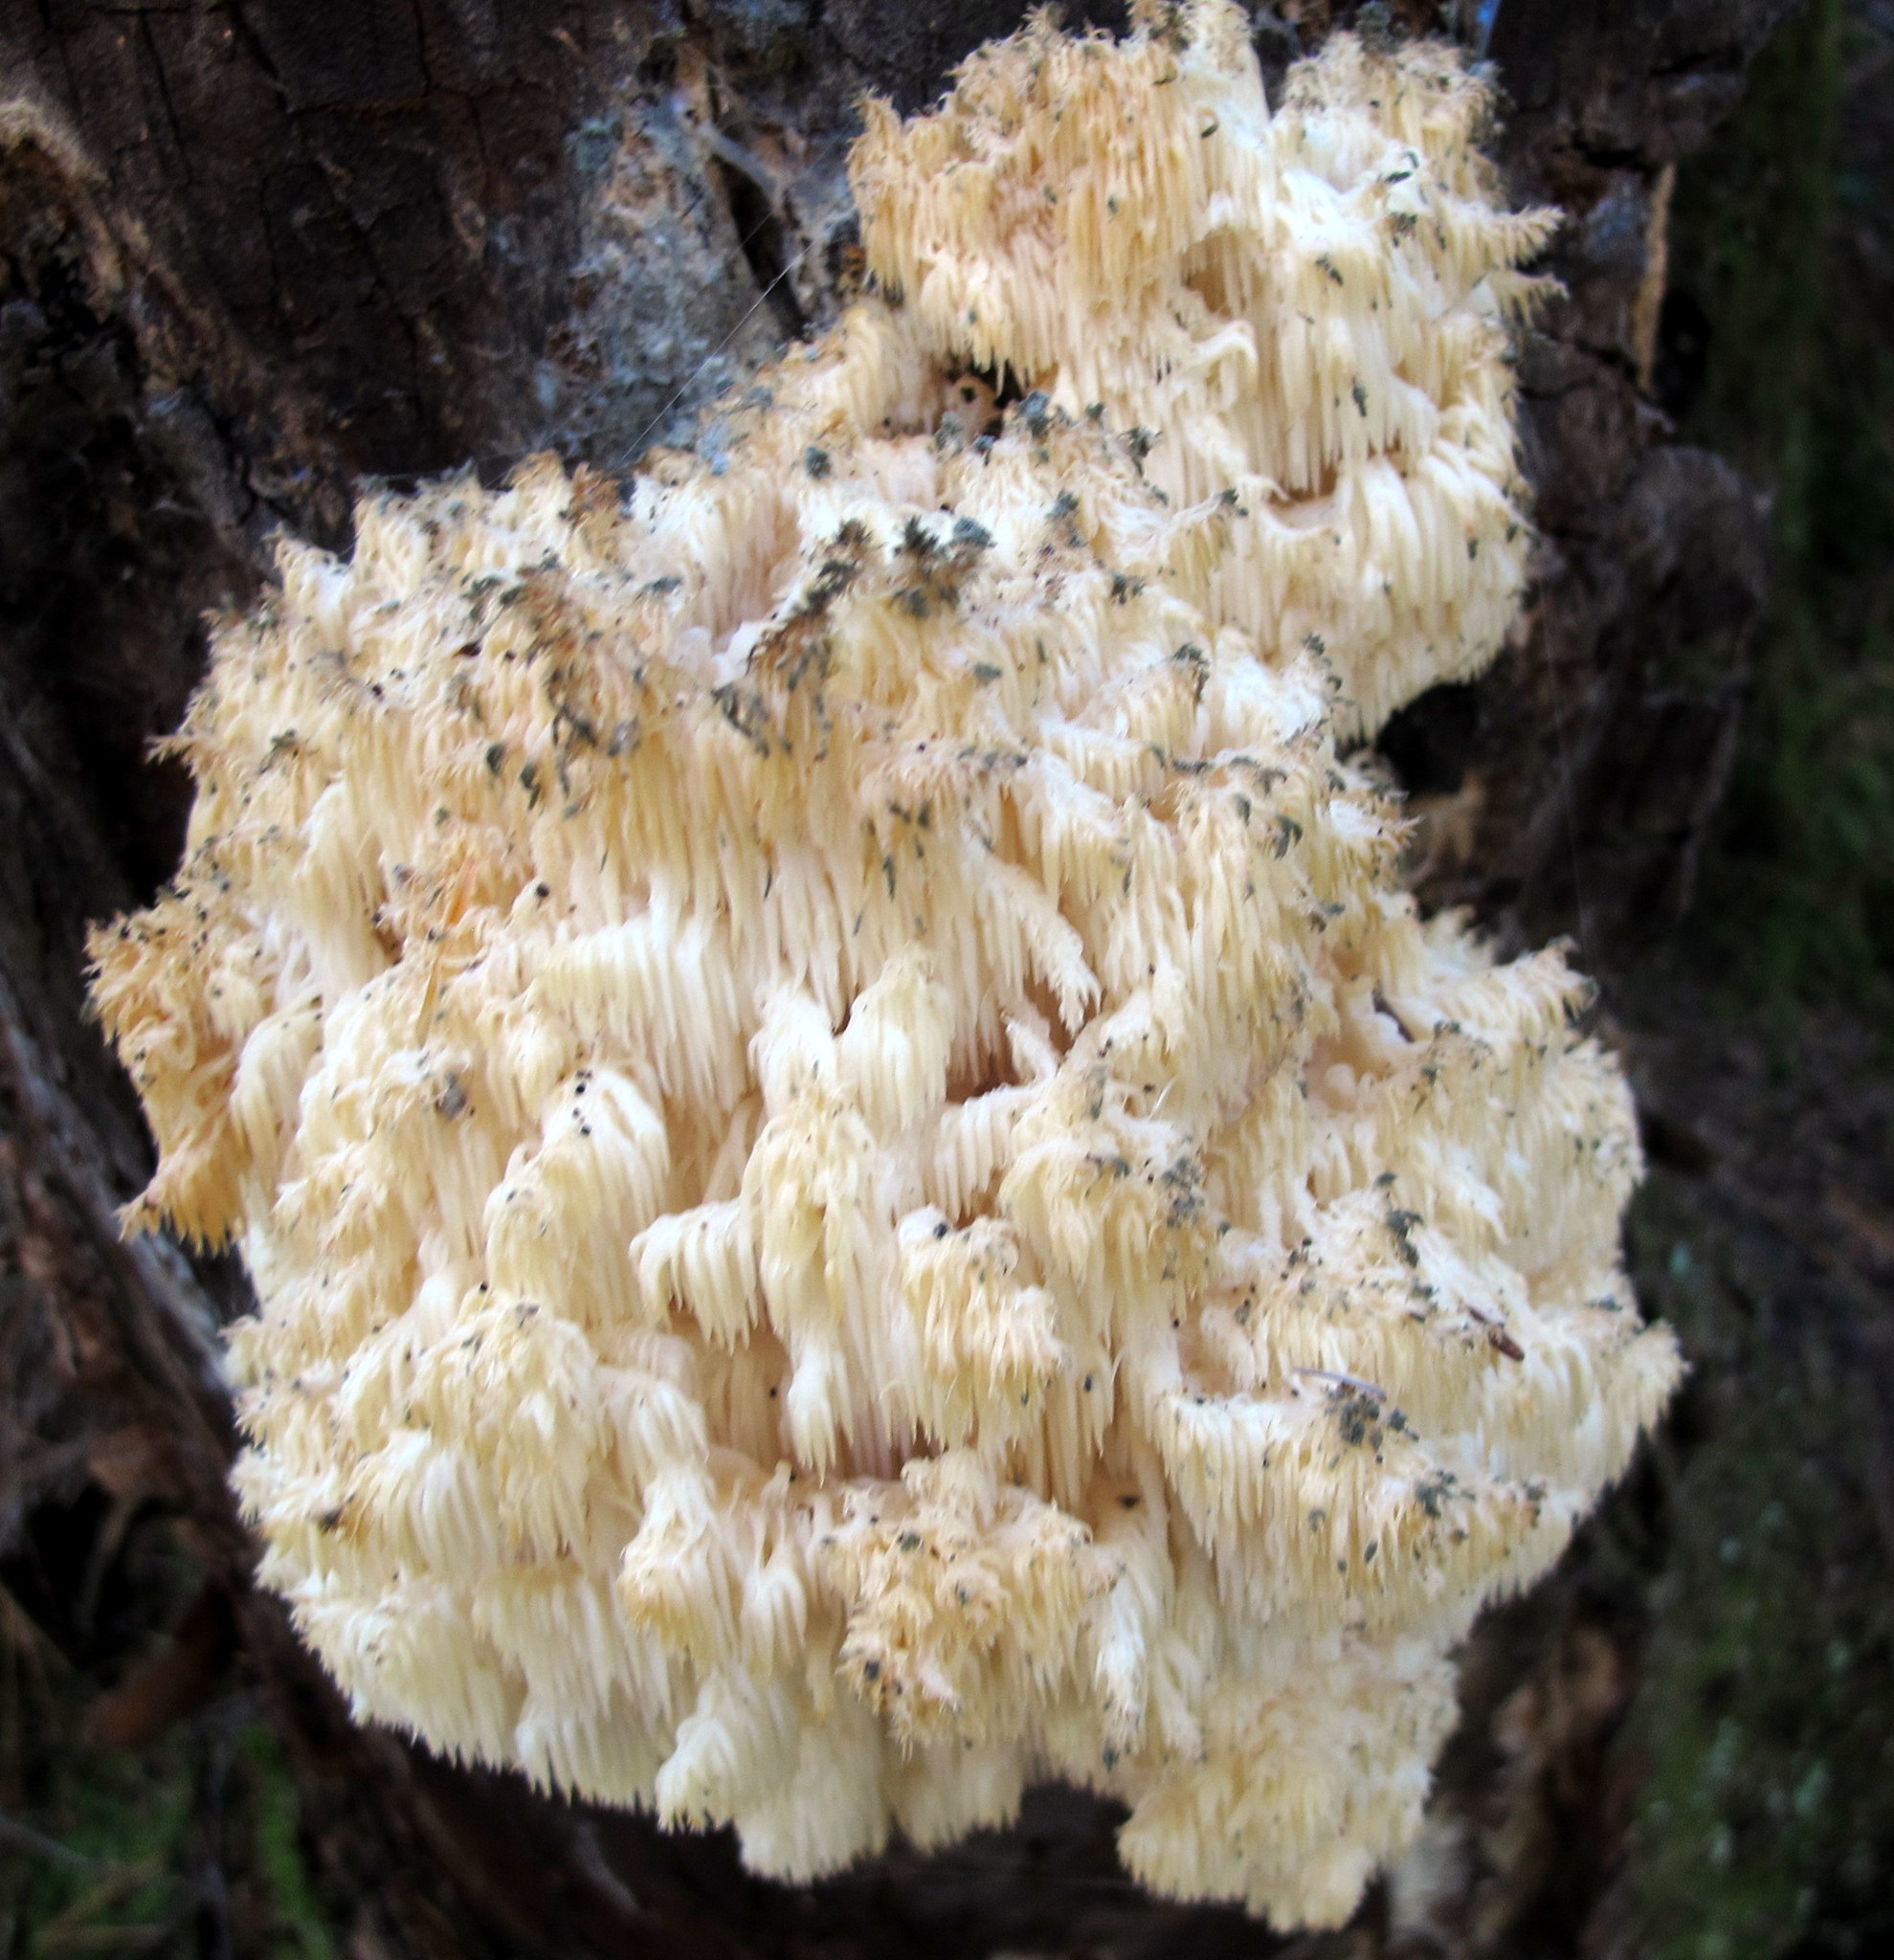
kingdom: Fungi
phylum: Basidiomycota
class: Agaricomycetes
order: Russulales
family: Hericiaceae
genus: Hericium
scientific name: Hericium americanum
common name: Bear's head tooth
